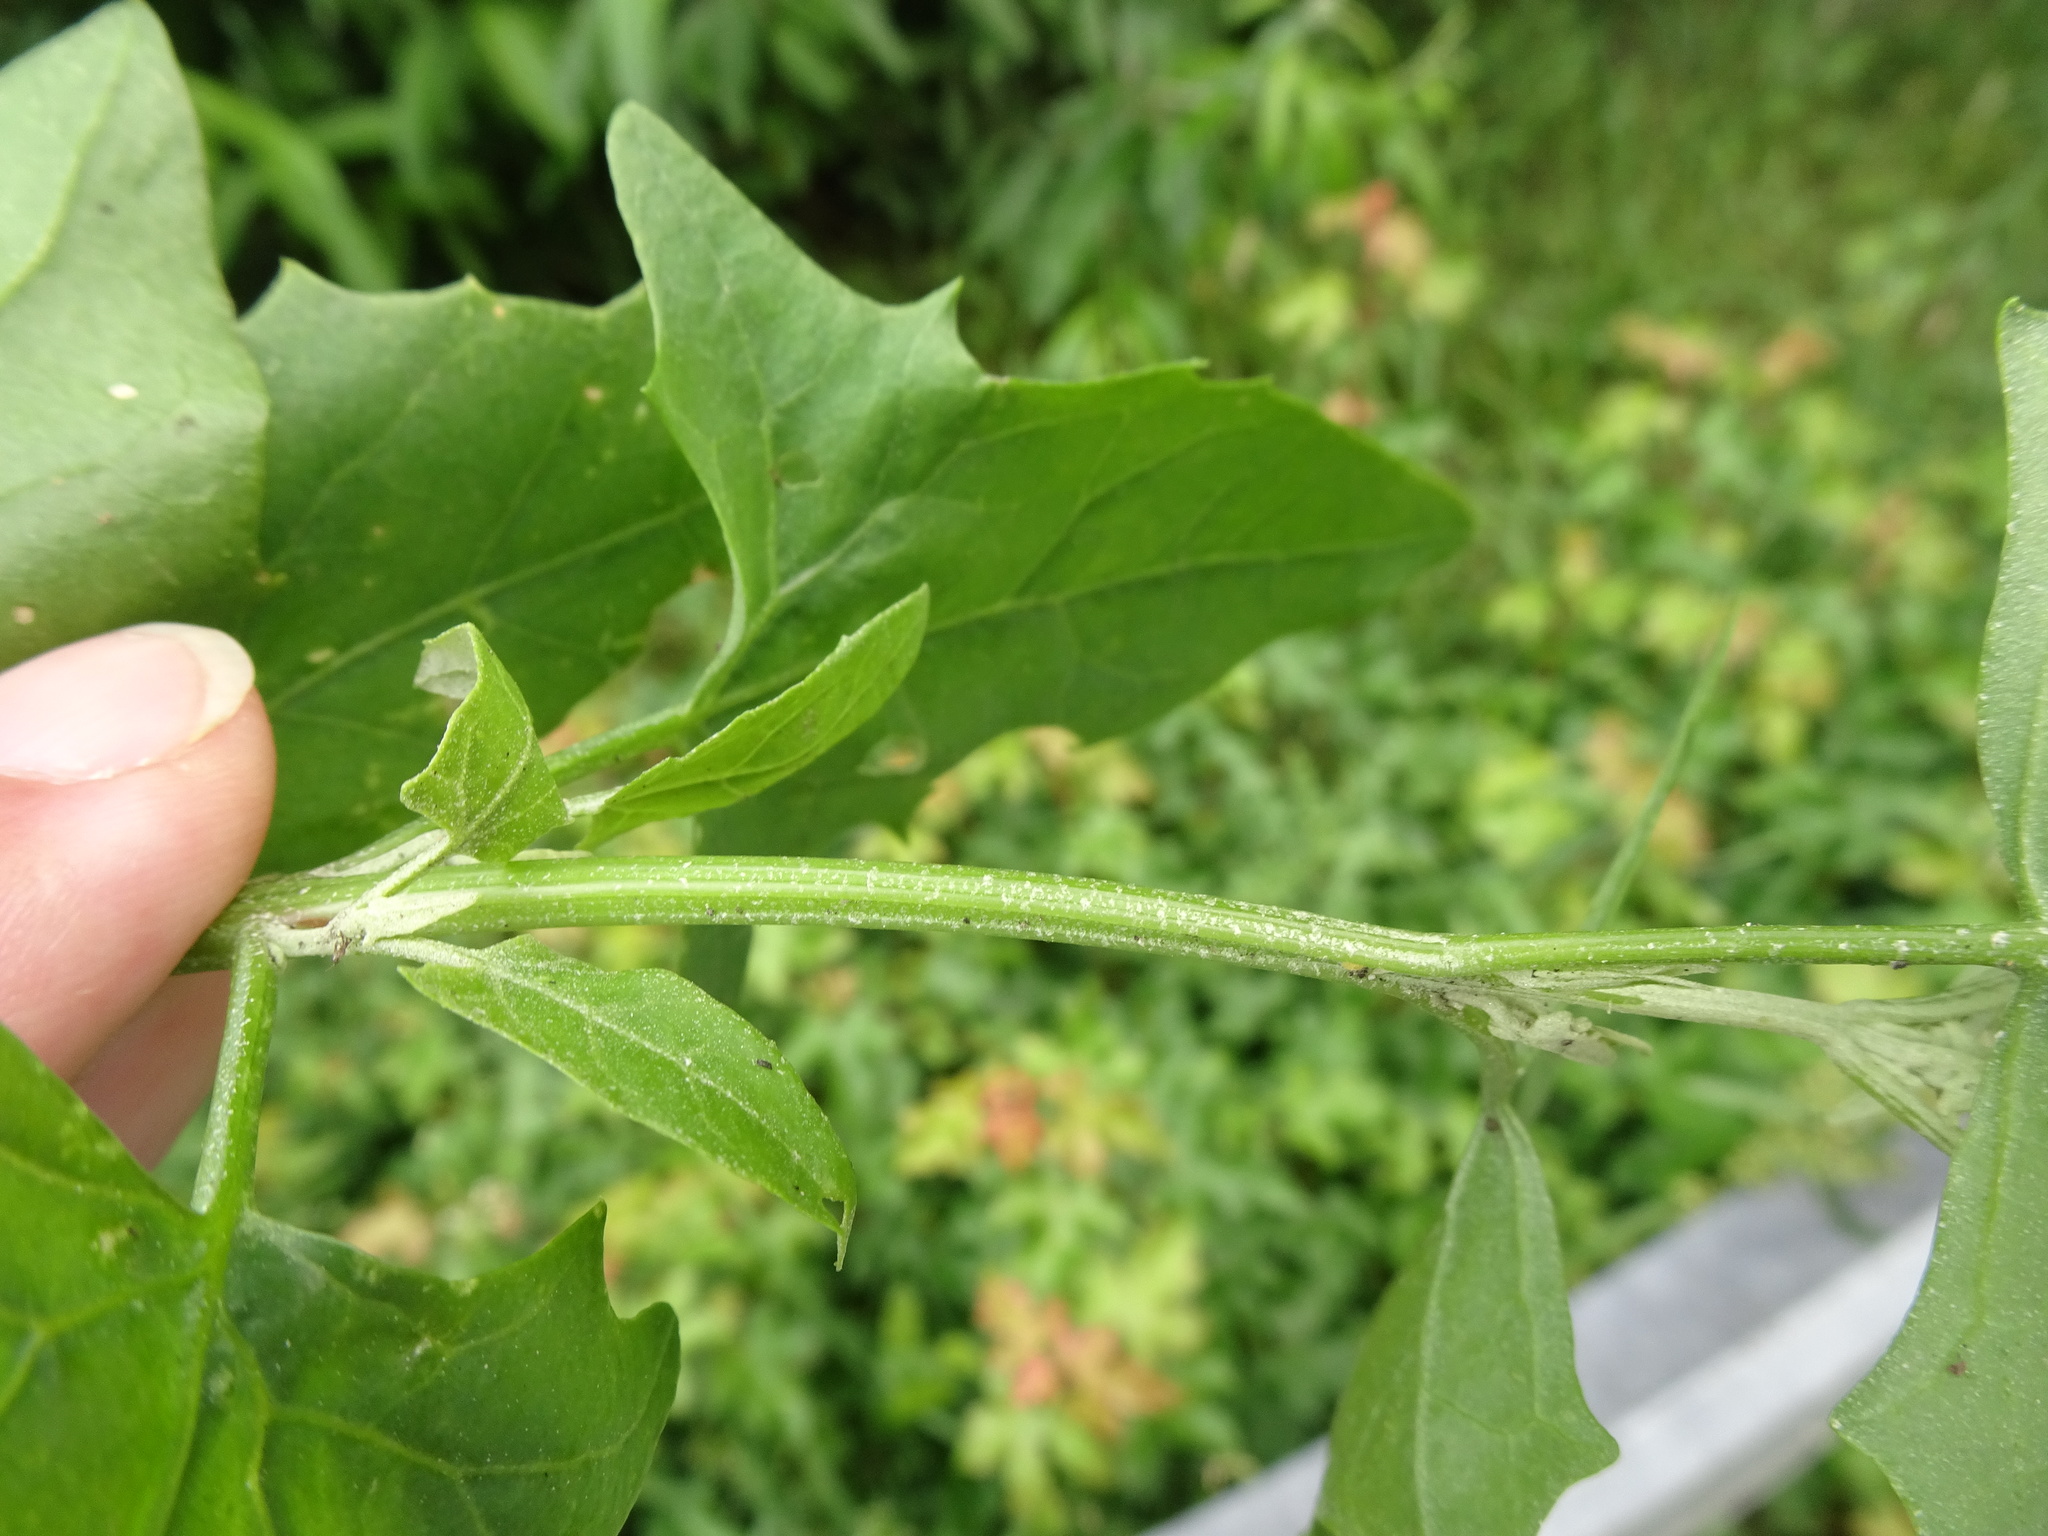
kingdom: Plantae
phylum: Tracheophyta
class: Magnoliopsida
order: Caryophyllales
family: Amaranthaceae
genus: Atriplex
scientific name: Atriplex micrantha
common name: Twoscale saltbush
